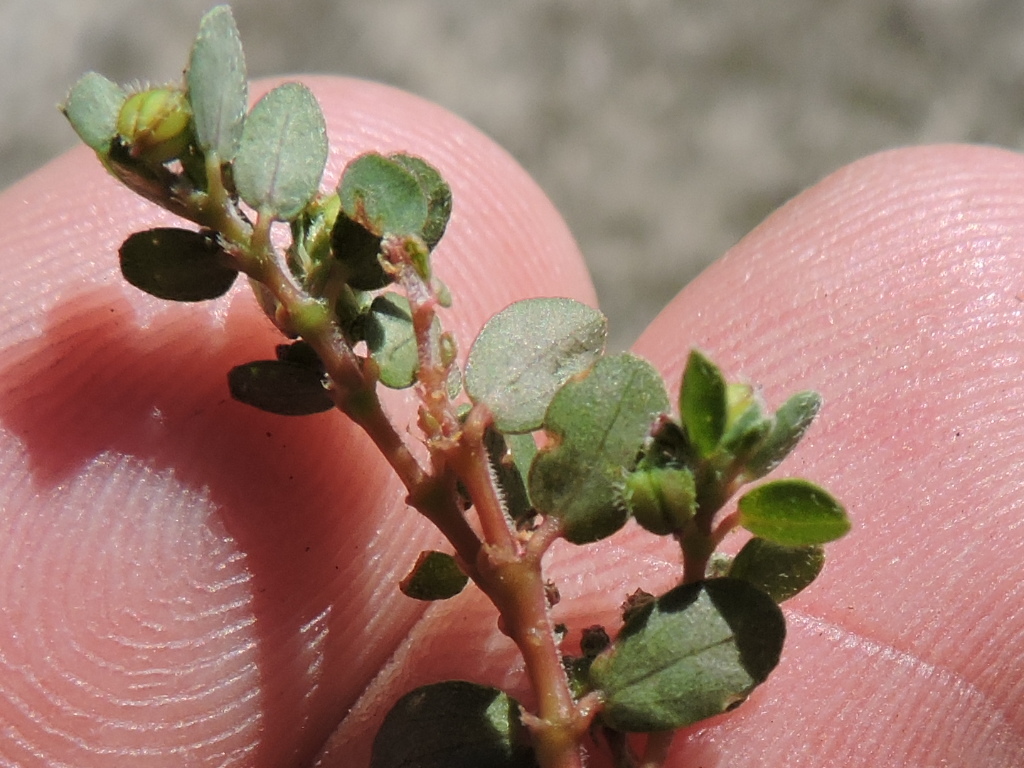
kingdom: Plantae
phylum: Tracheophyta
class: Magnoliopsida
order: Malpighiales
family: Euphorbiaceae
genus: Euphorbia
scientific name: Euphorbia prostrata
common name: Prostrate sandmat
